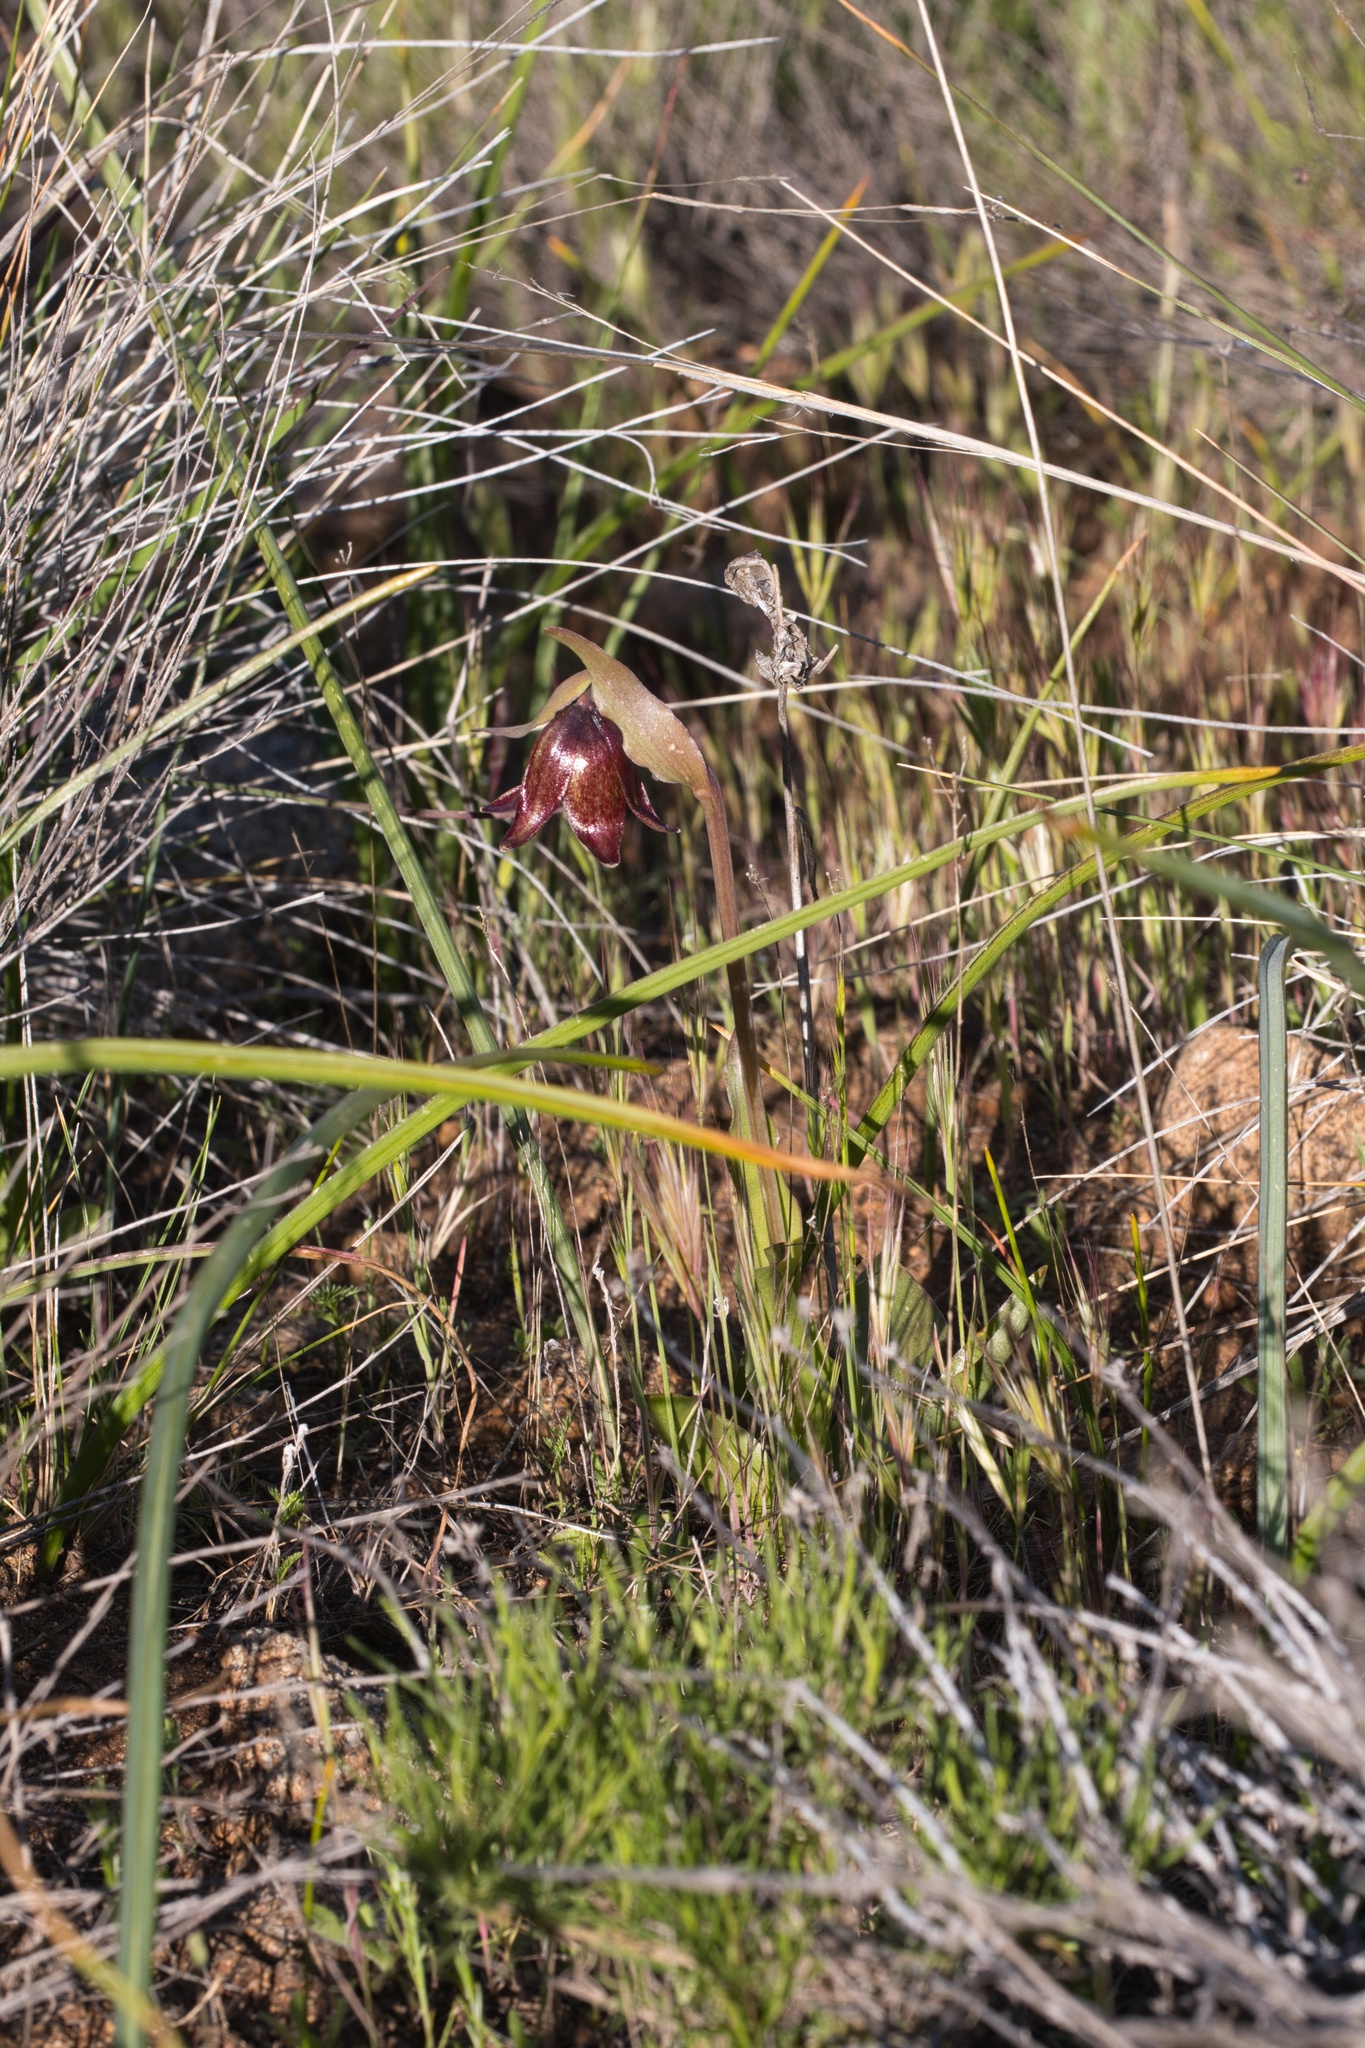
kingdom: Plantae
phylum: Tracheophyta
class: Liliopsida
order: Liliales
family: Liliaceae
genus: Fritillaria
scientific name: Fritillaria biflora
